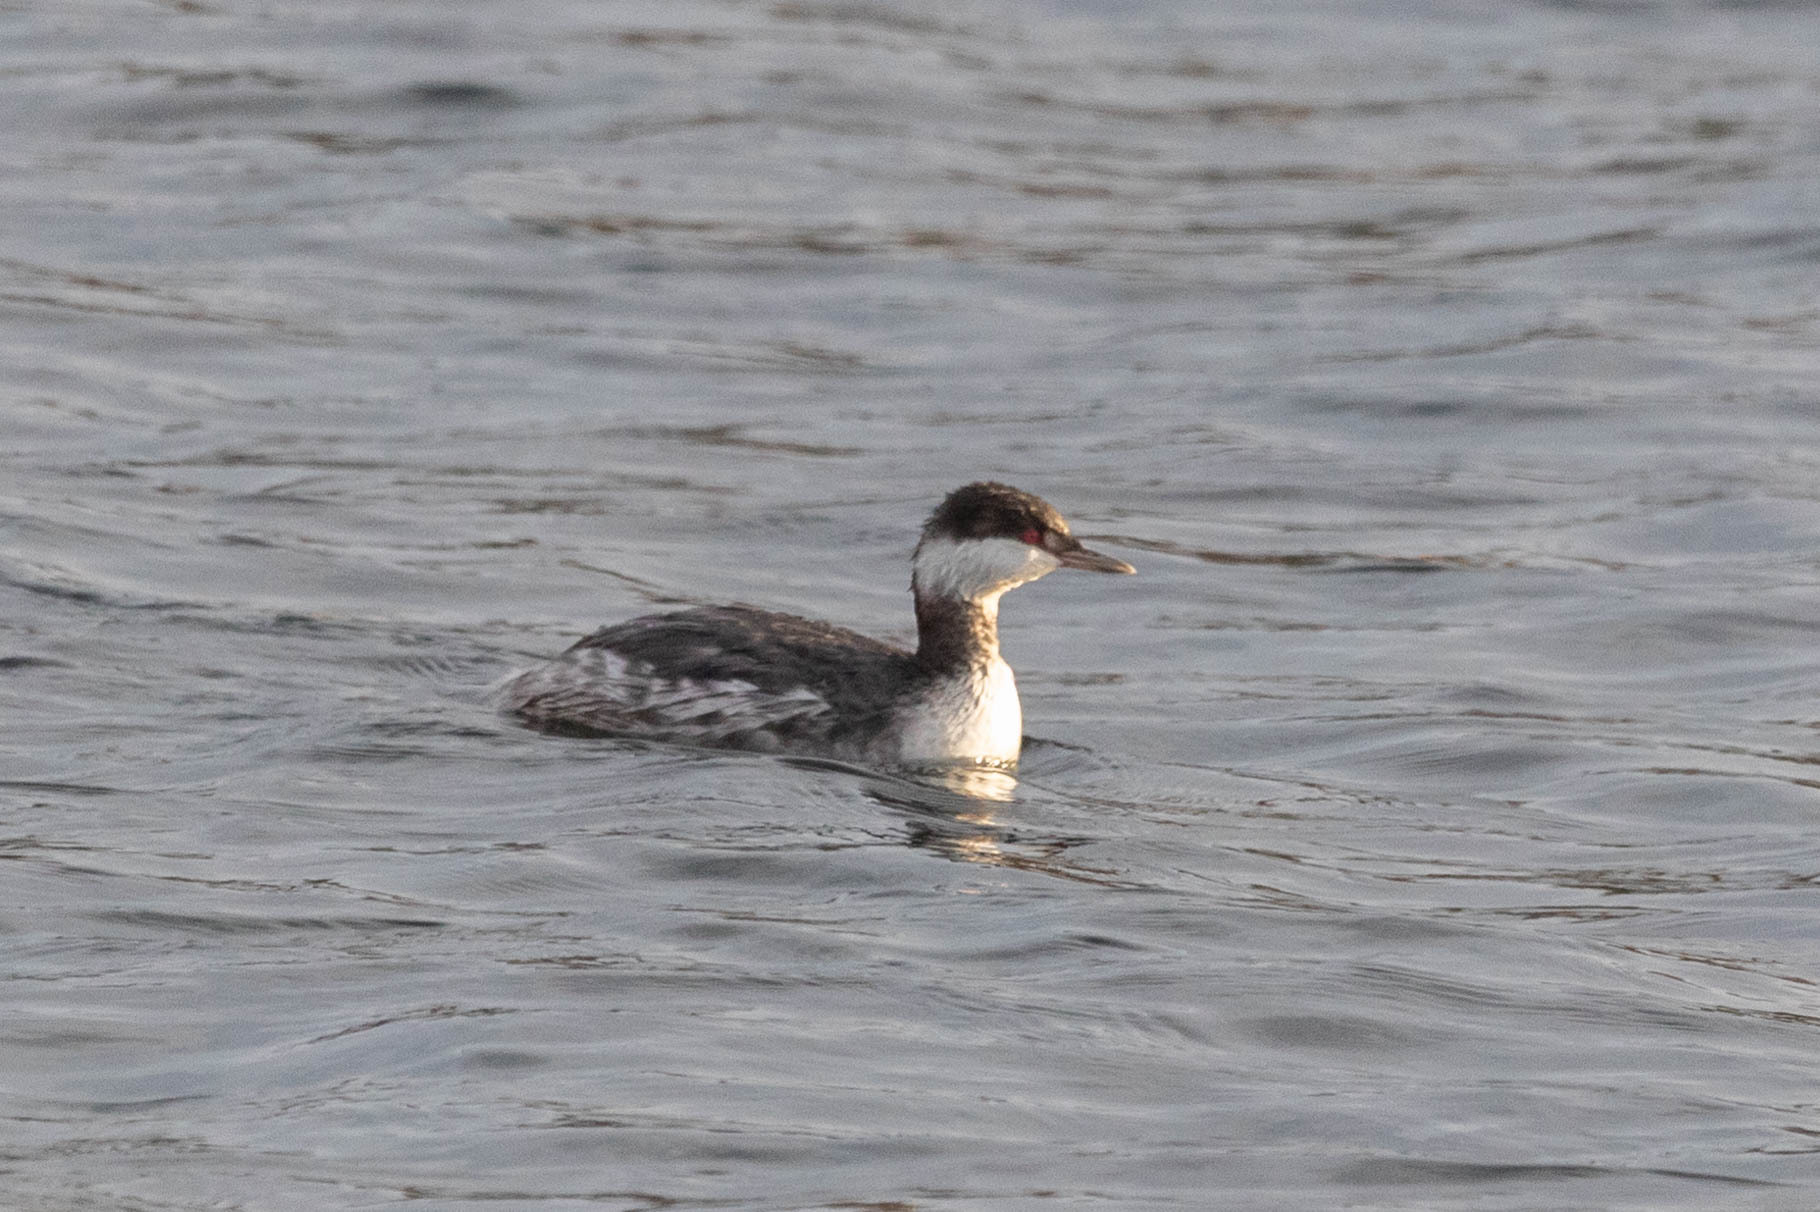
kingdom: Animalia
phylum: Chordata
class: Aves
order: Podicipediformes
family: Podicipedidae
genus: Podiceps
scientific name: Podiceps auritus
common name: Horned grebe
